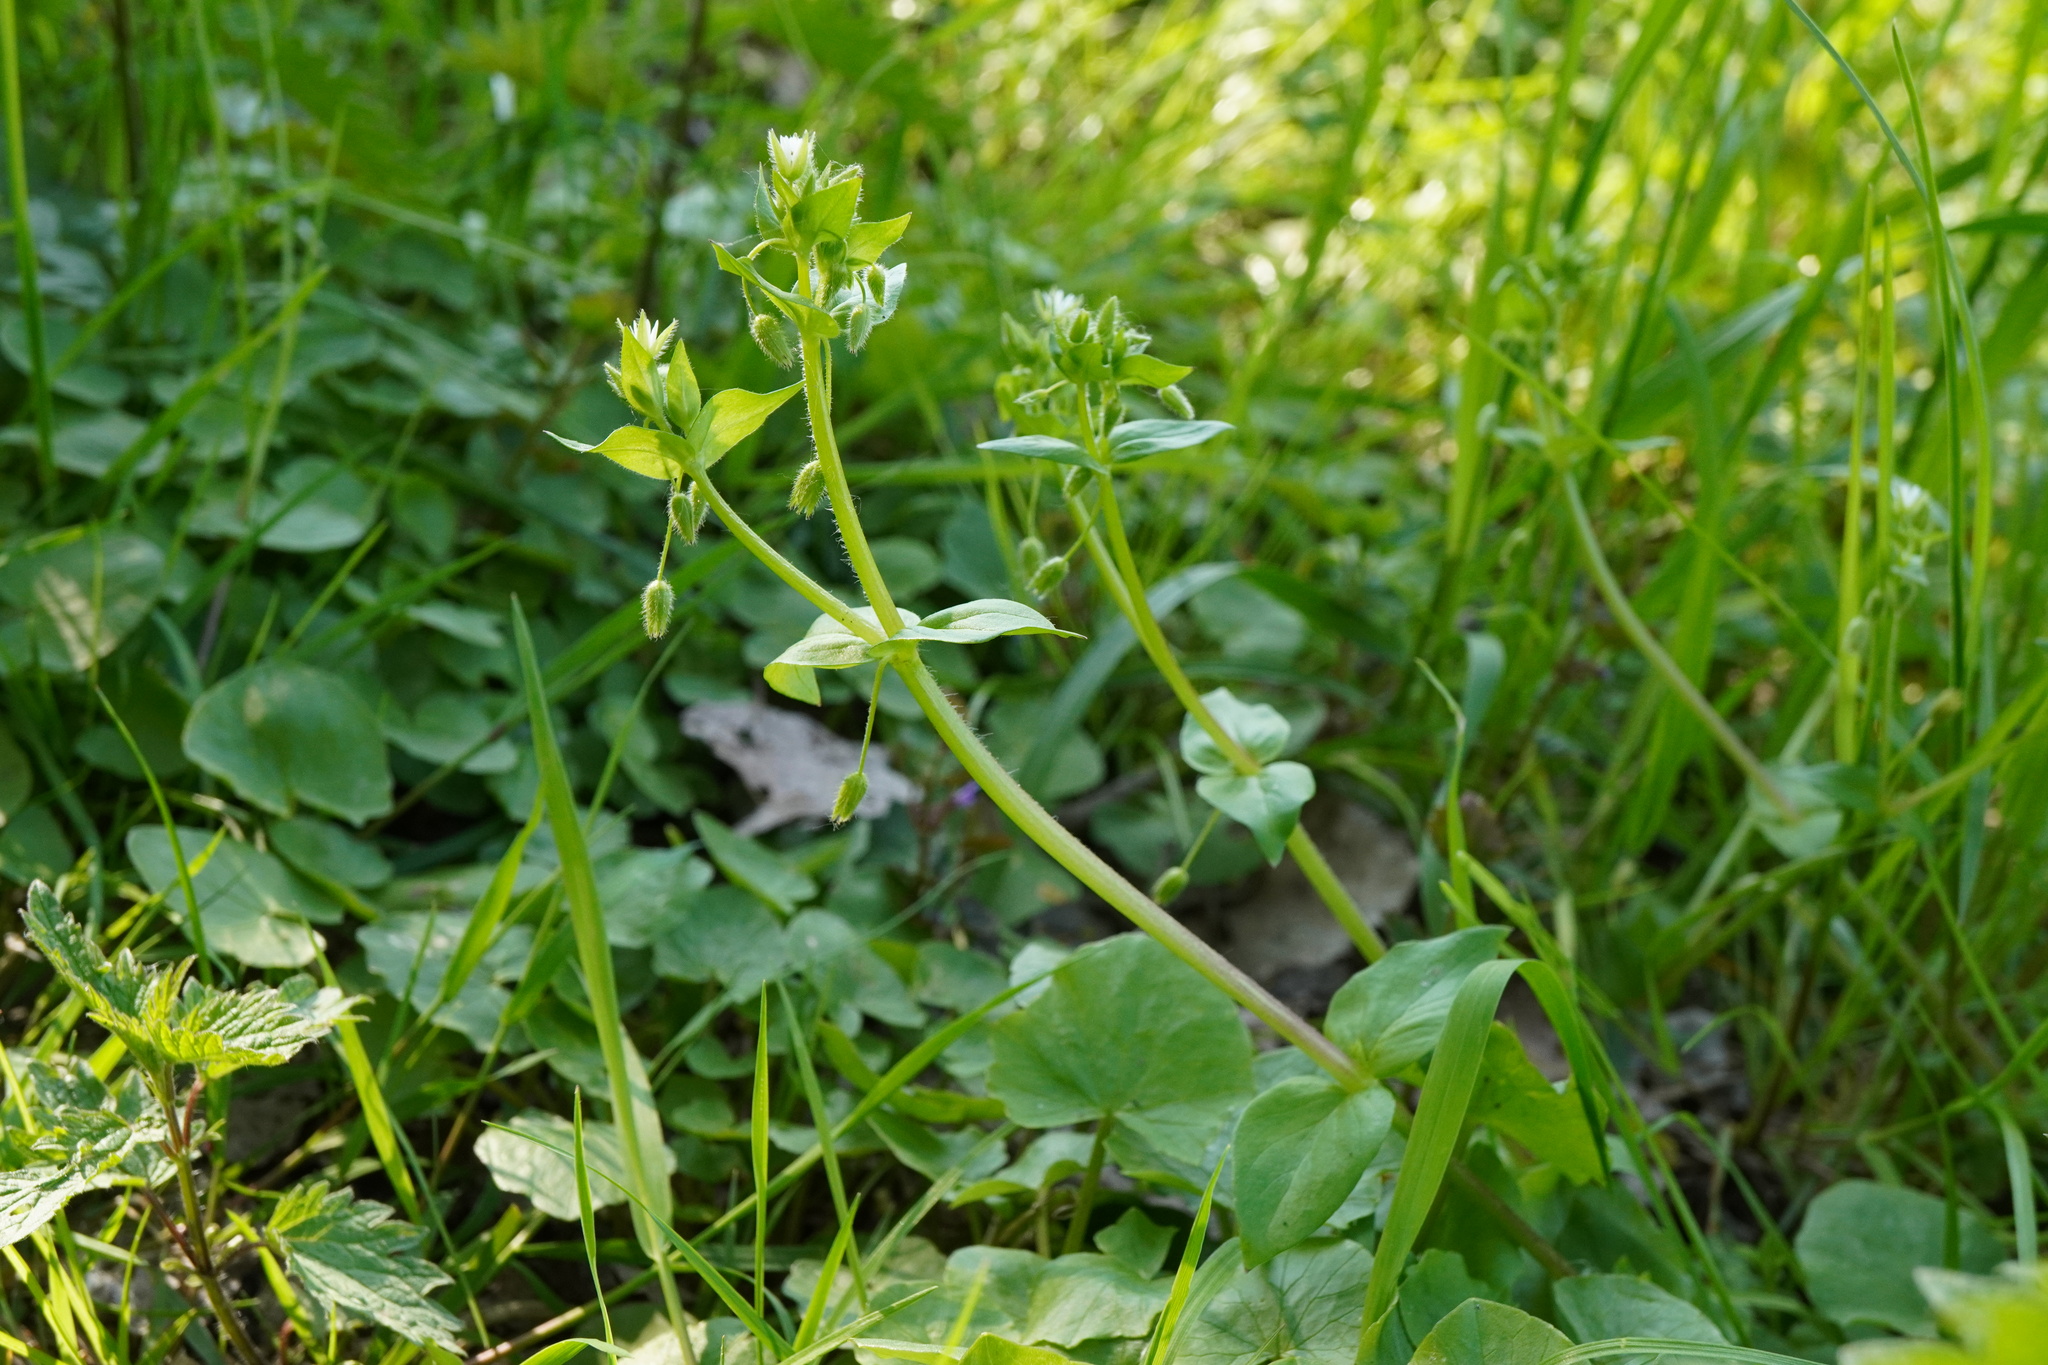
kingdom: Plantae
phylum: Tracheophyta
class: Magnoliopsida
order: Caryophyllales
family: Caryophyllaceae
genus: Stellaria
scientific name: Stellaria ruderalis
